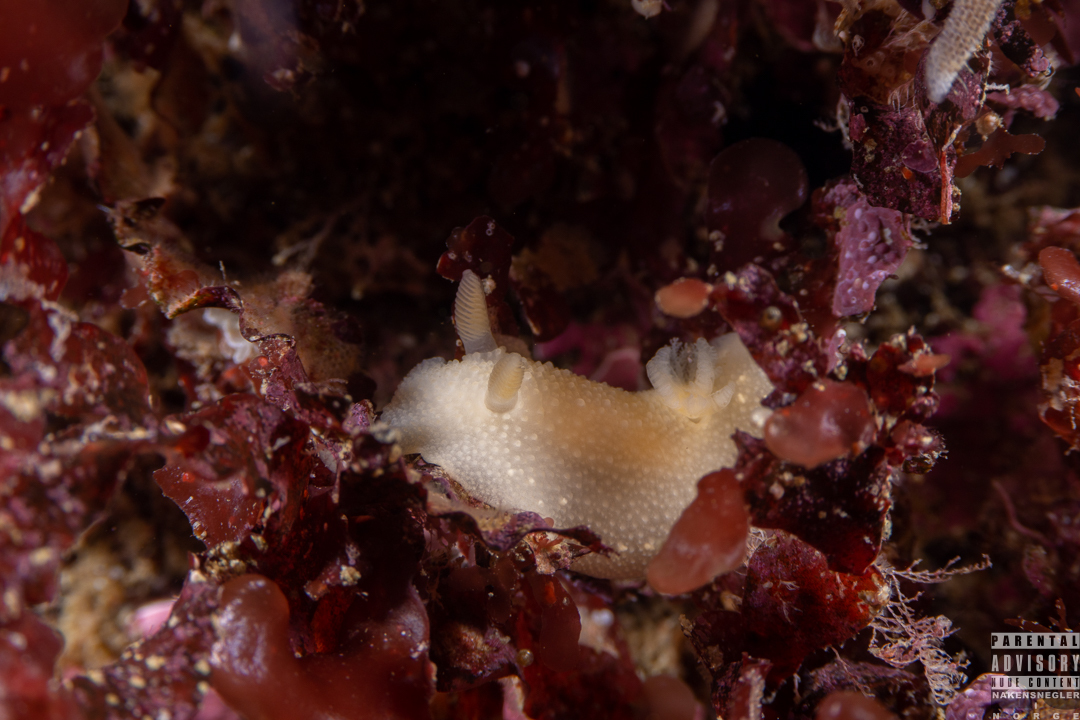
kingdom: Animalia
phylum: Mollusca
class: Gastropoda
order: Nudibranchia
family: Cadlinidae
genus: Cadlina
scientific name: Cadlina laevis
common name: White atlantic cadlina
